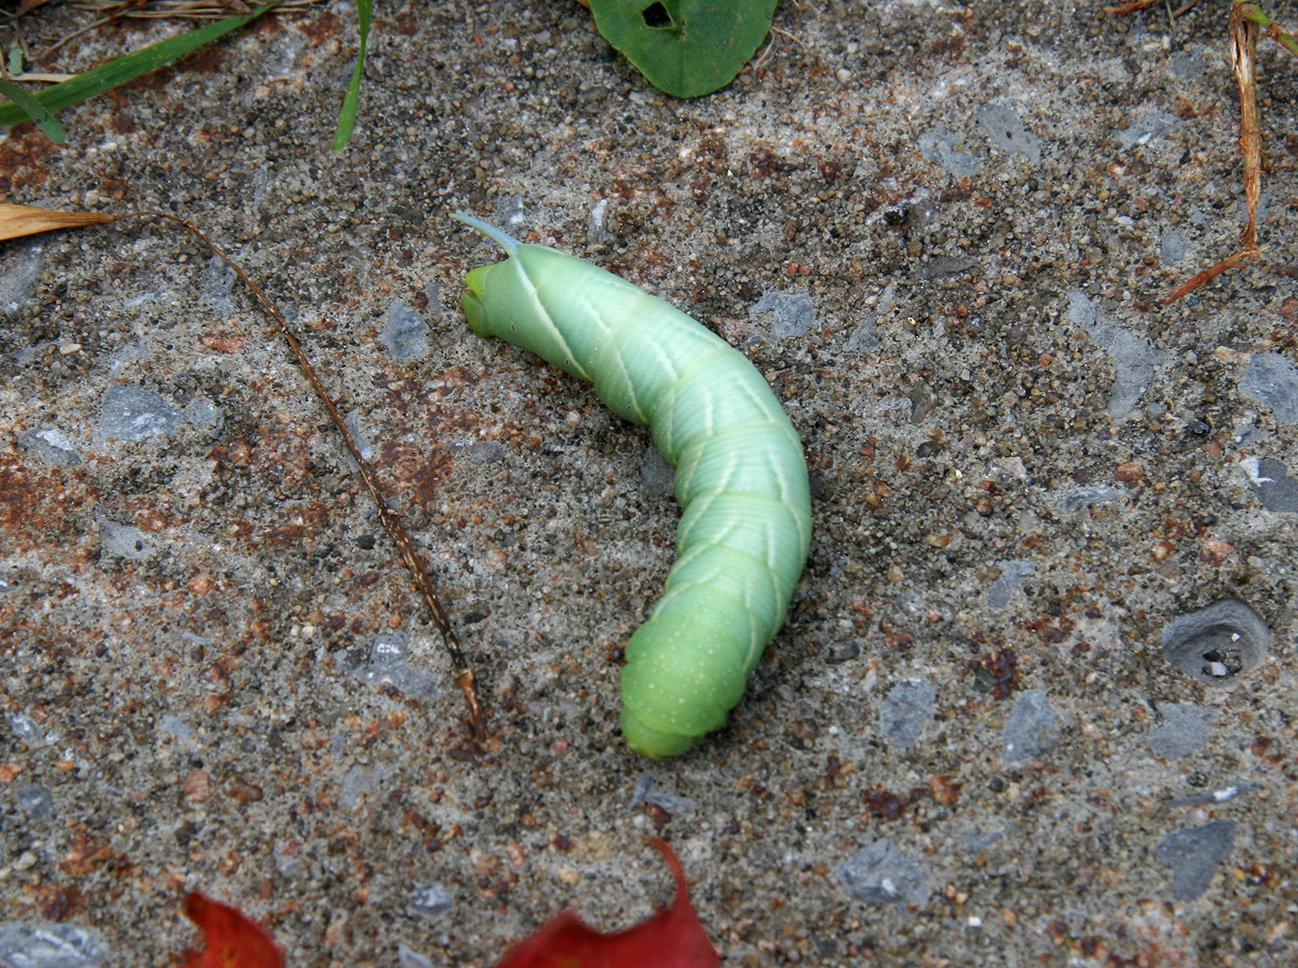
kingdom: Animalia
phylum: Arthropoda
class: Insecta
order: Lepidoptera
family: Sphingidae
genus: Sphinx
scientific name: Sphinx chersis
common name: Great ash sphinx
